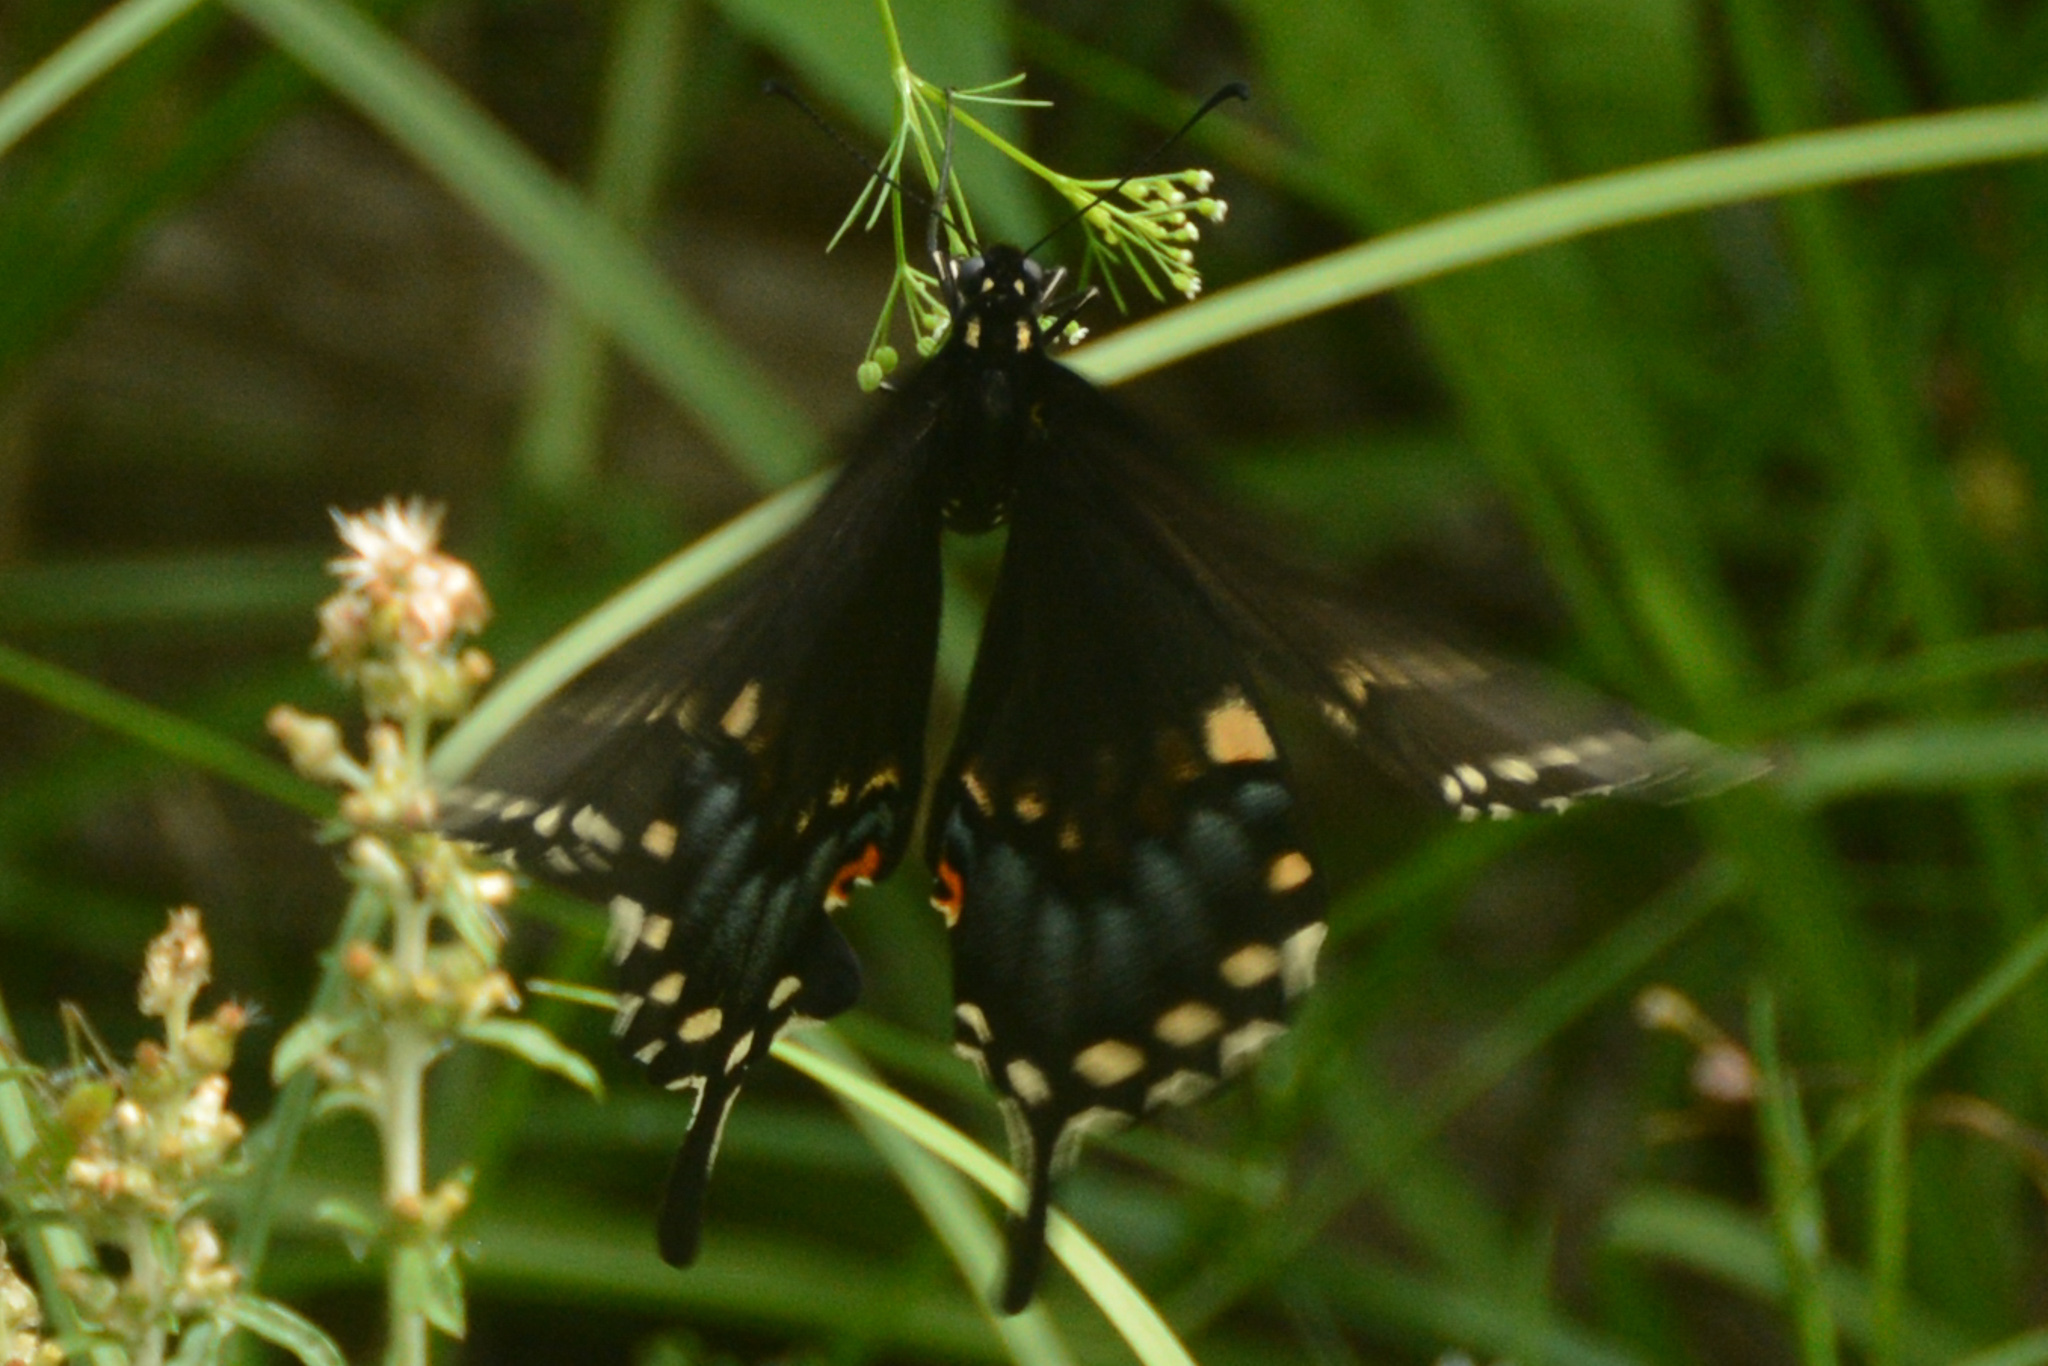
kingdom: Animalia
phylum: Arthropoda
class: Insecta
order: Lepidoptera
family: Papilionidae
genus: Papilio
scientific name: Papilio polyxenes
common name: Black swallowtail
